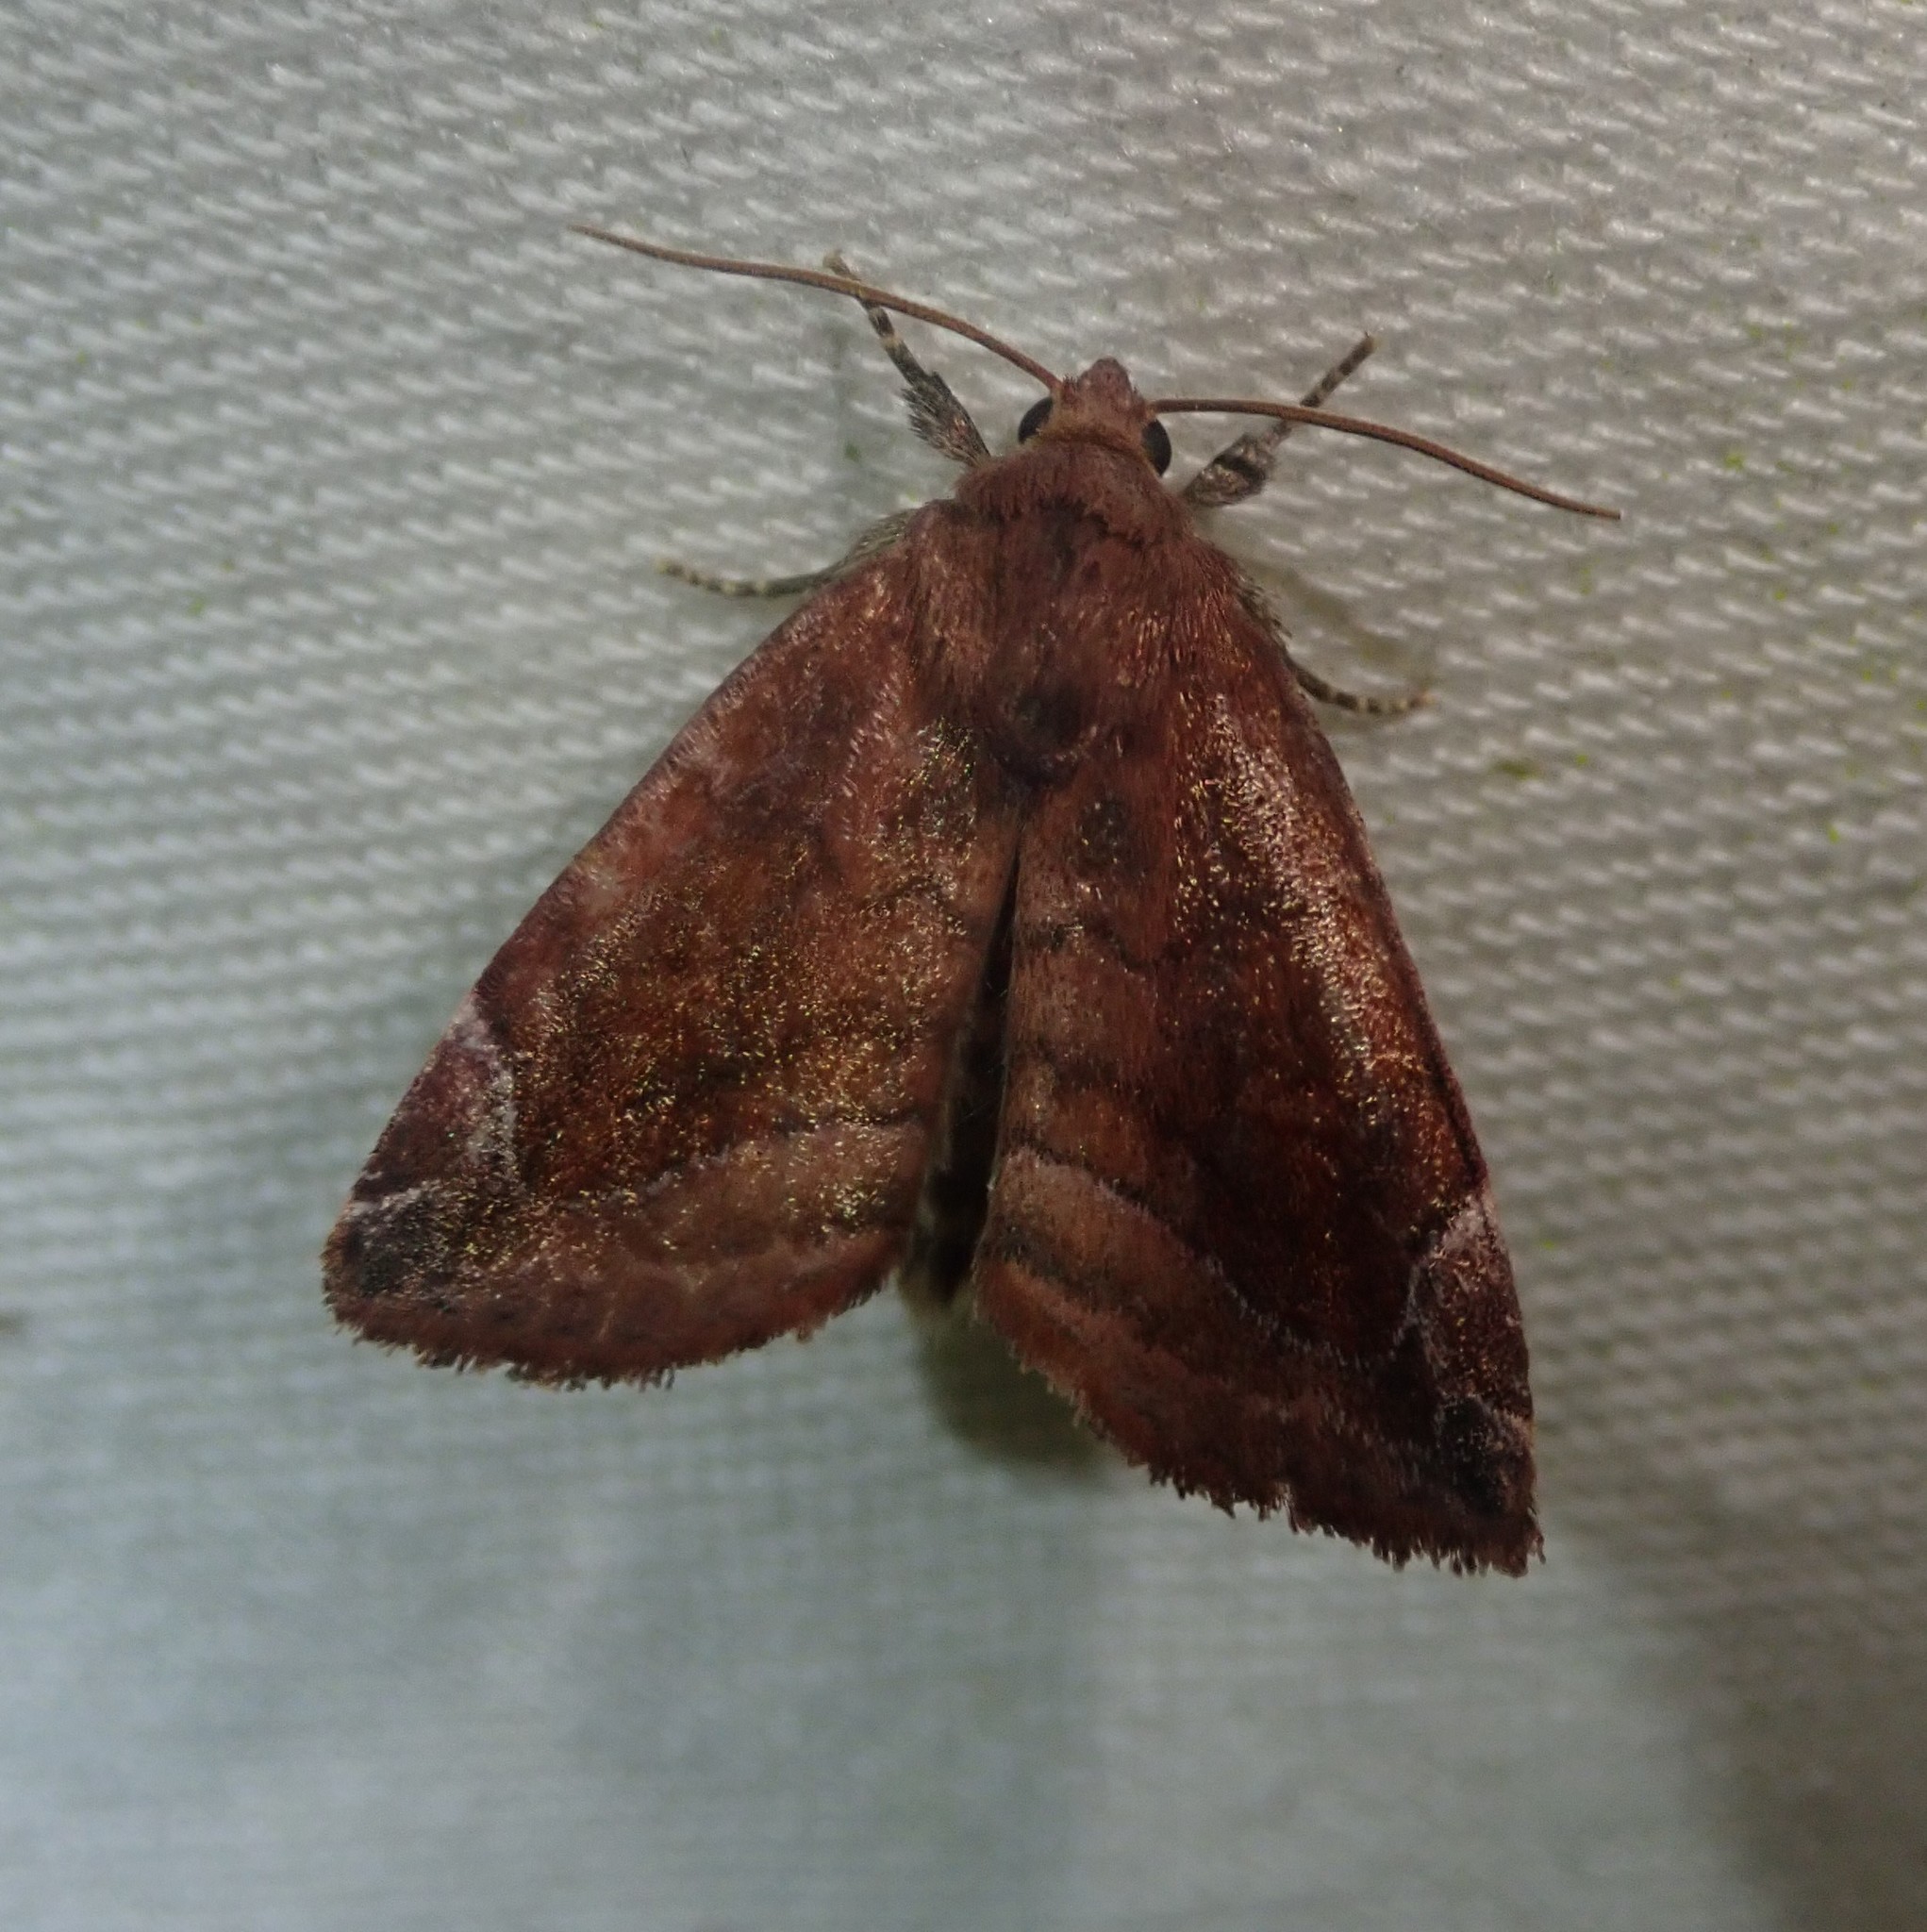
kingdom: Animalia
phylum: Arthropoda
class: Insecta
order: Lepidoptera
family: Noctuidae
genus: Cosmia
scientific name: Cosmia pyralina
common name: Lunar-spotted pinion
